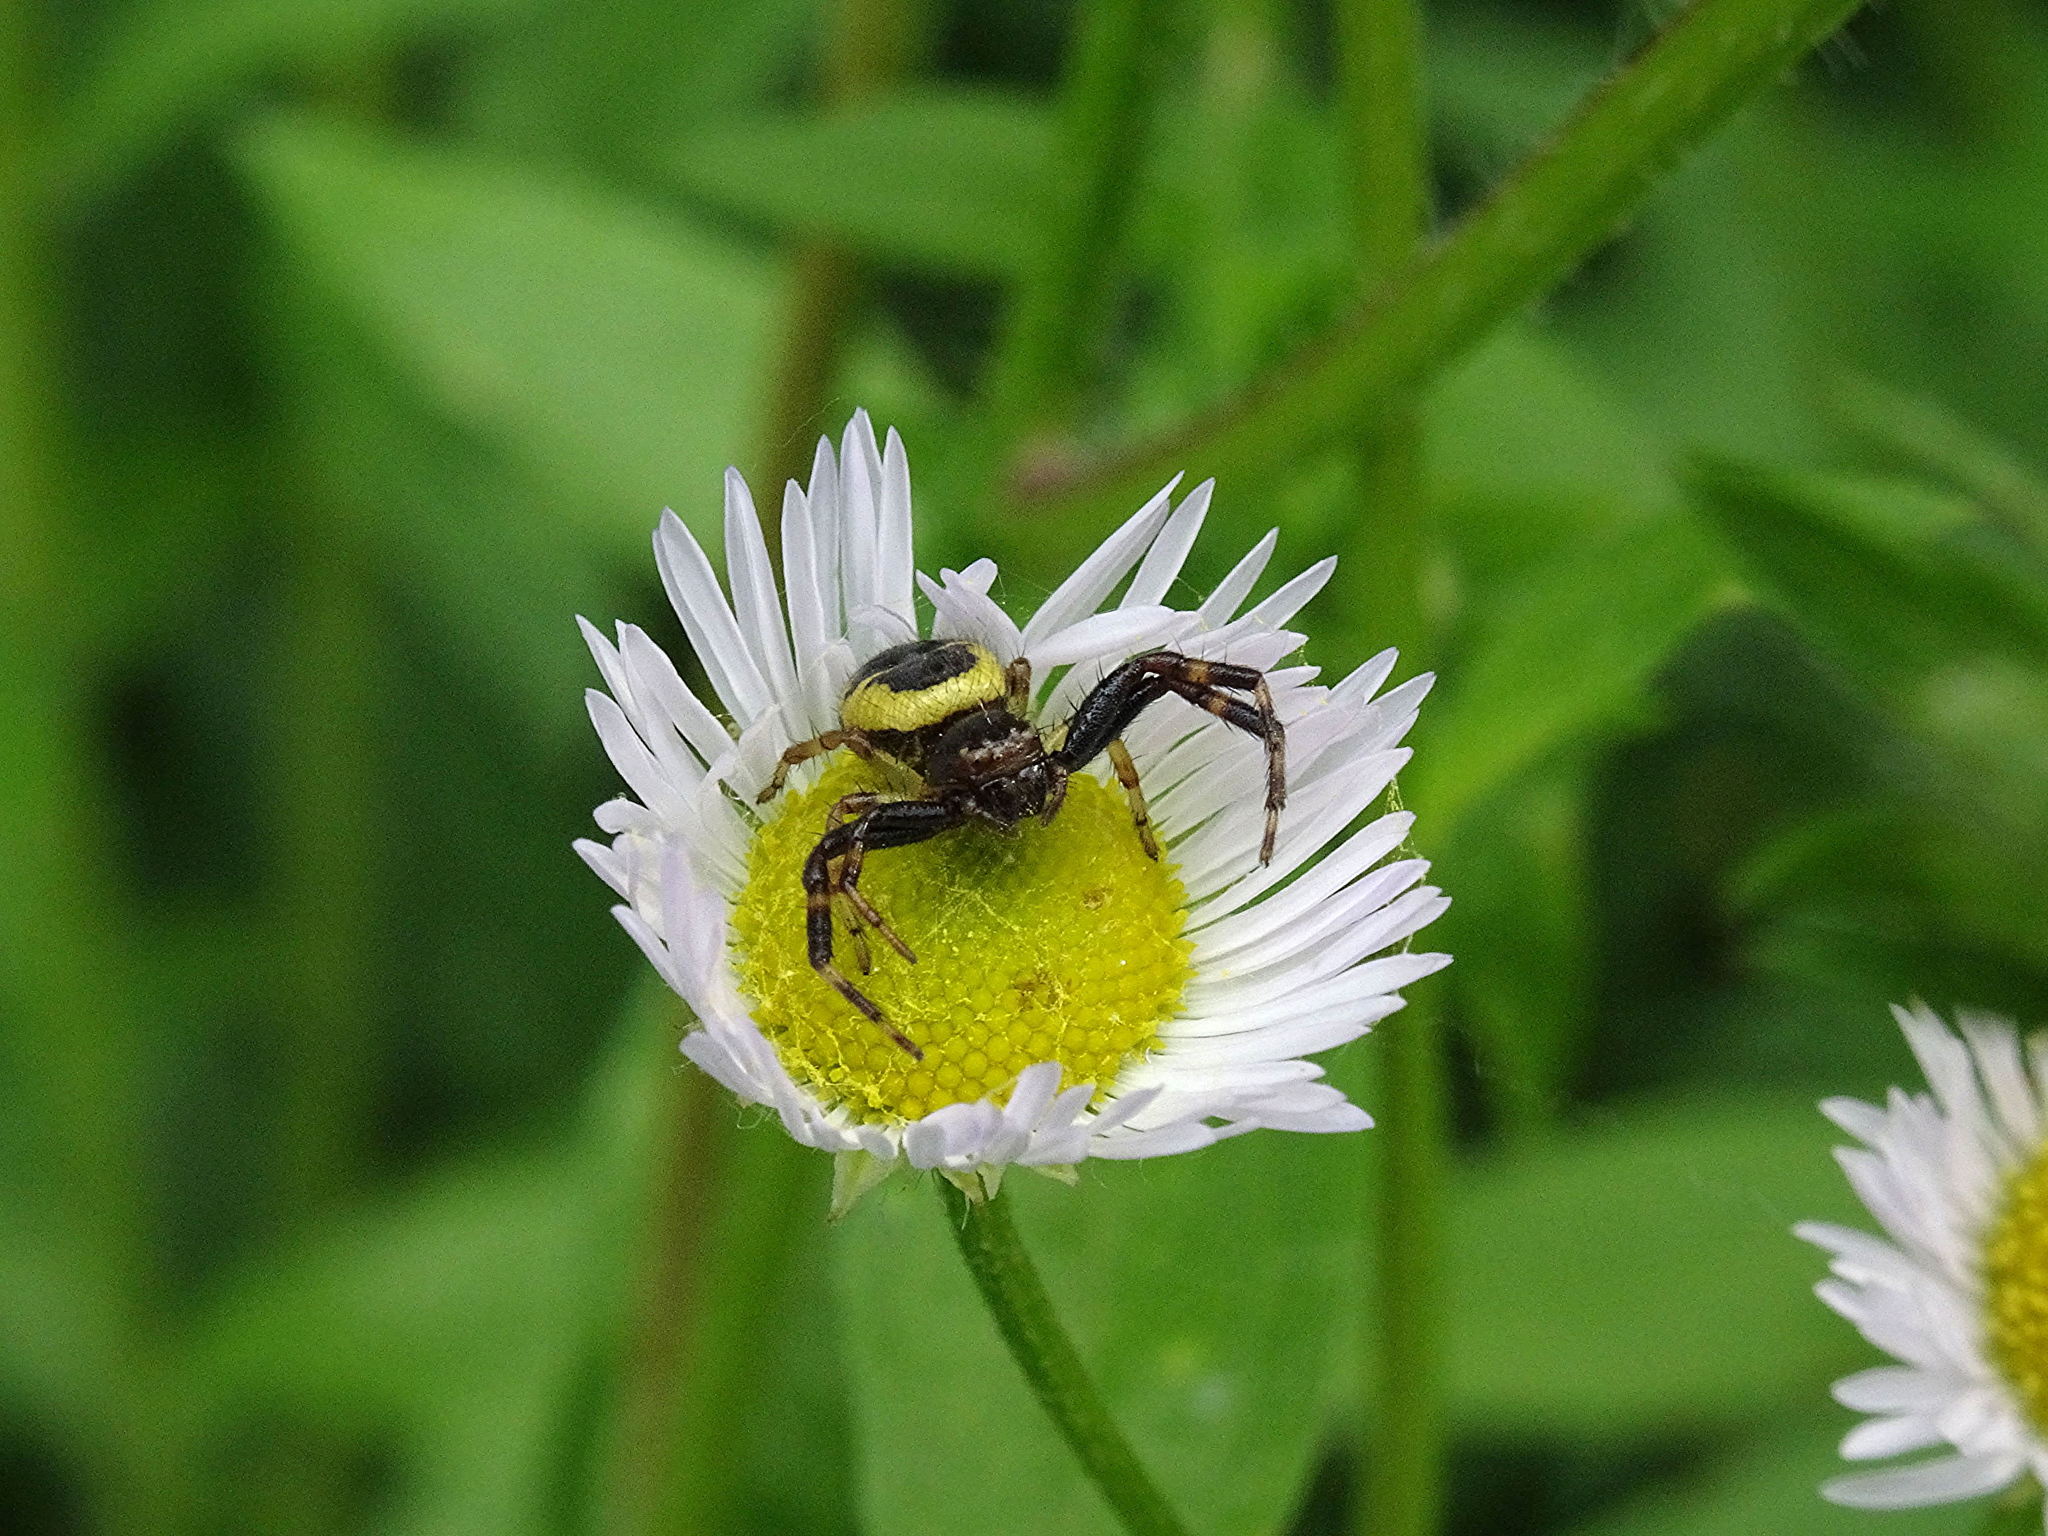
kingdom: Animalia
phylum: Arthropoda
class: Arachnida
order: Araneae
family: Thomisidae
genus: Synema
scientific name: Synema globosum
